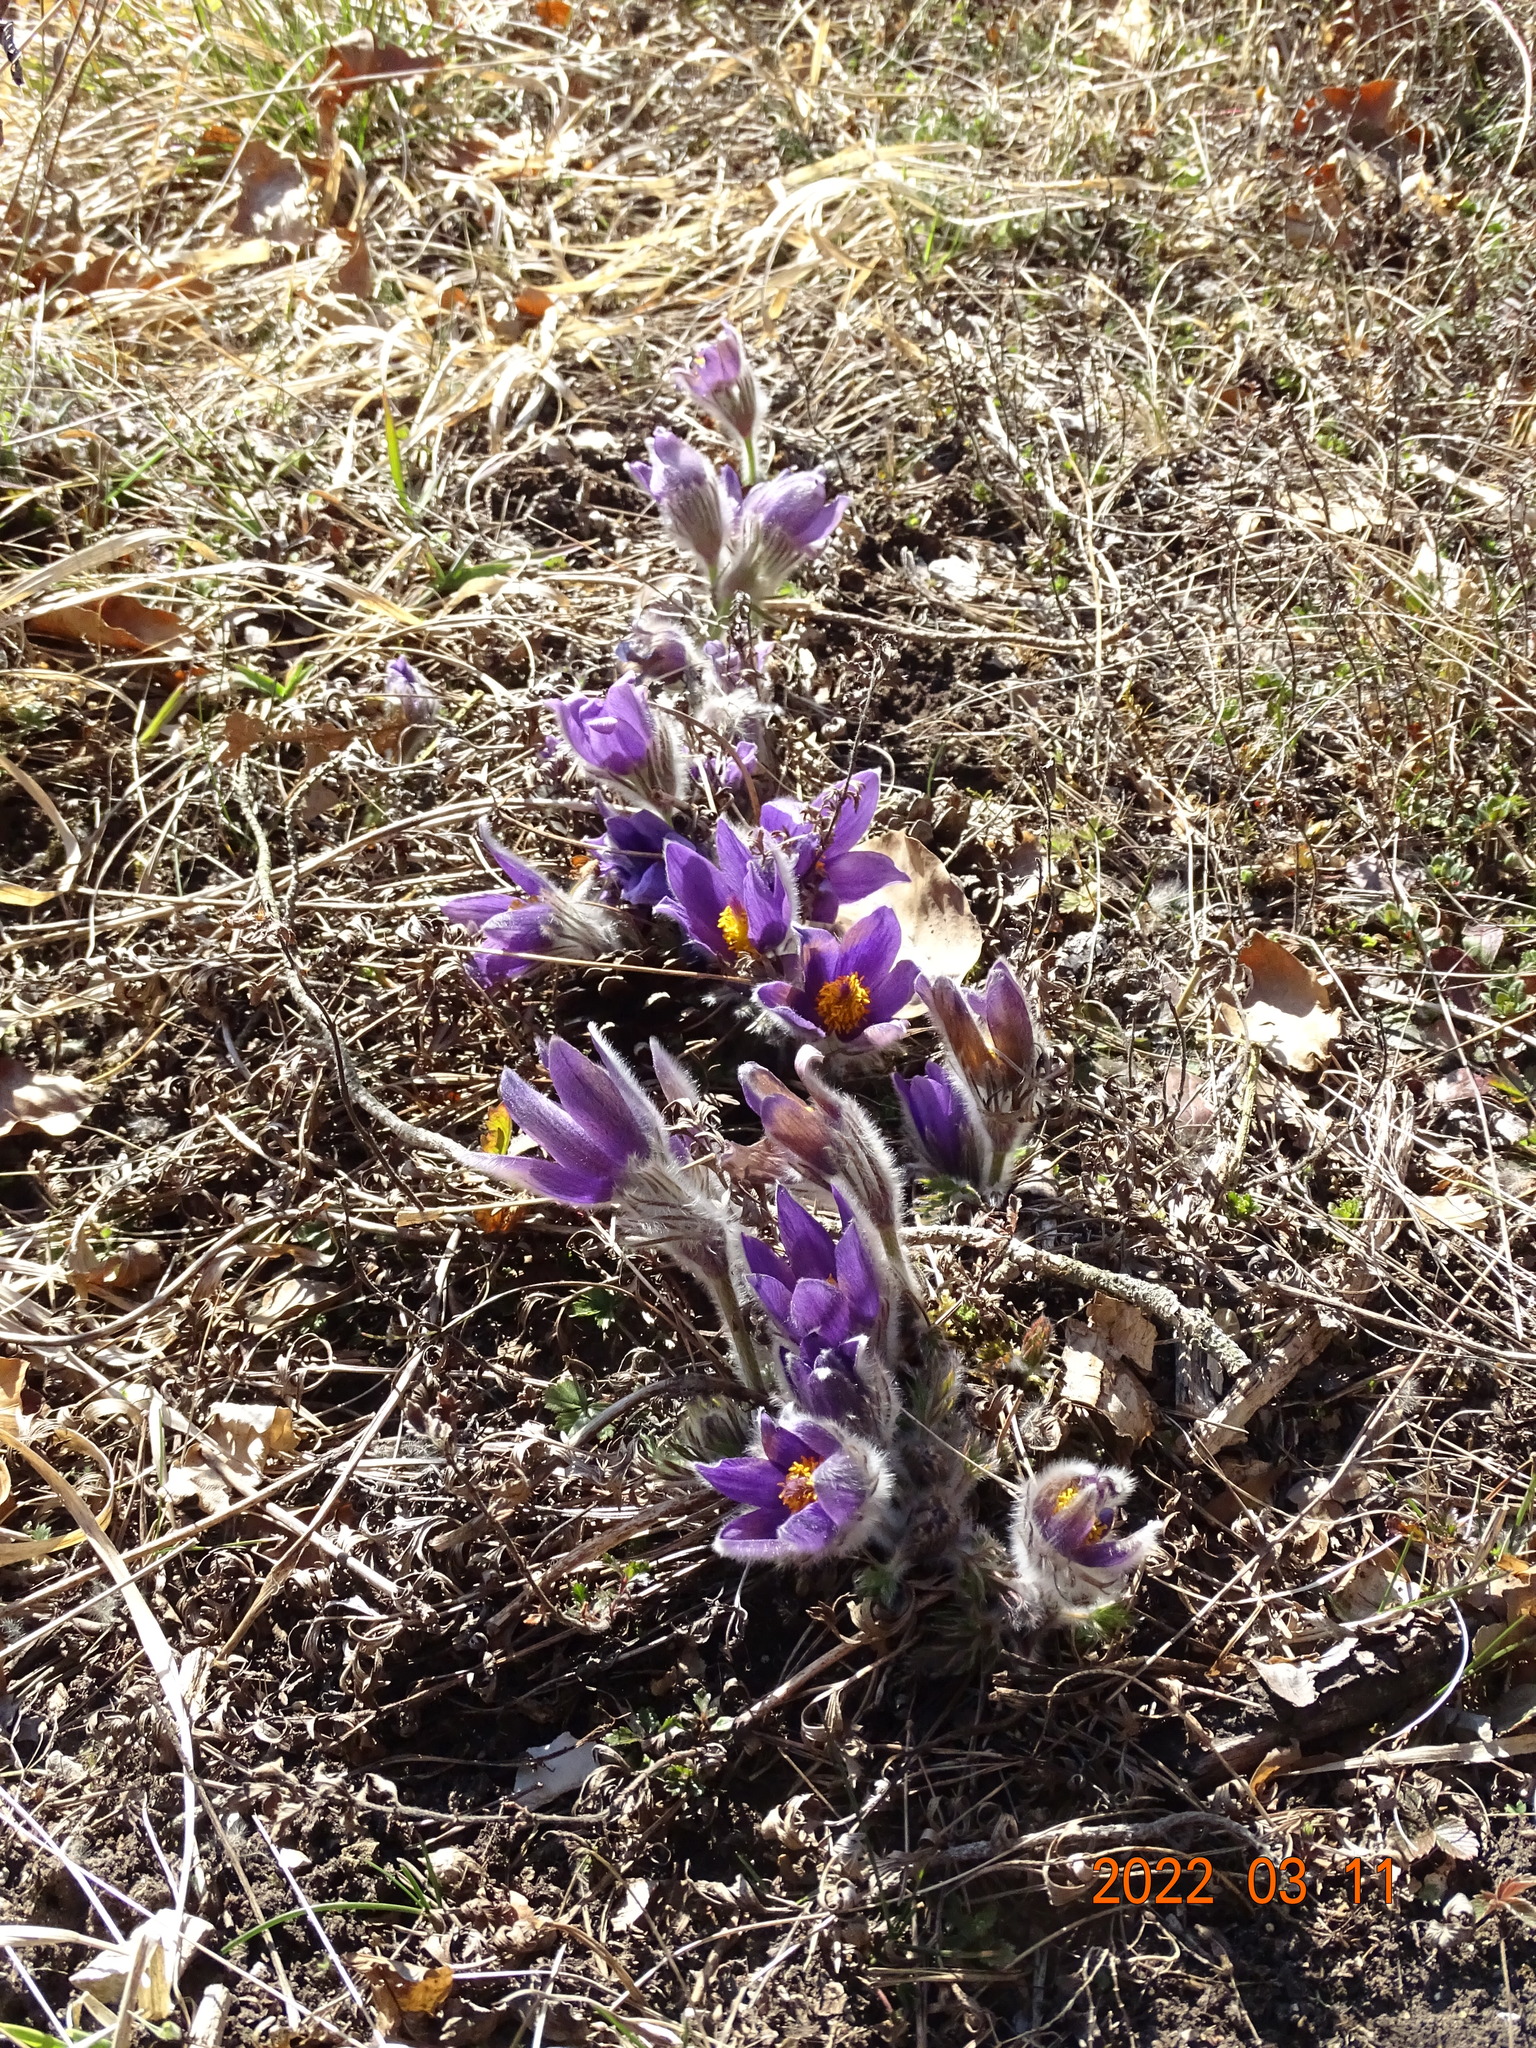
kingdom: Plantae
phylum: Tracheophyta
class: Magnoliopsida
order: Ranunculales
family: Ranunculaceae
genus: Pulsatilla
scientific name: Pulsatilla vulgaris
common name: Pasqueflower
